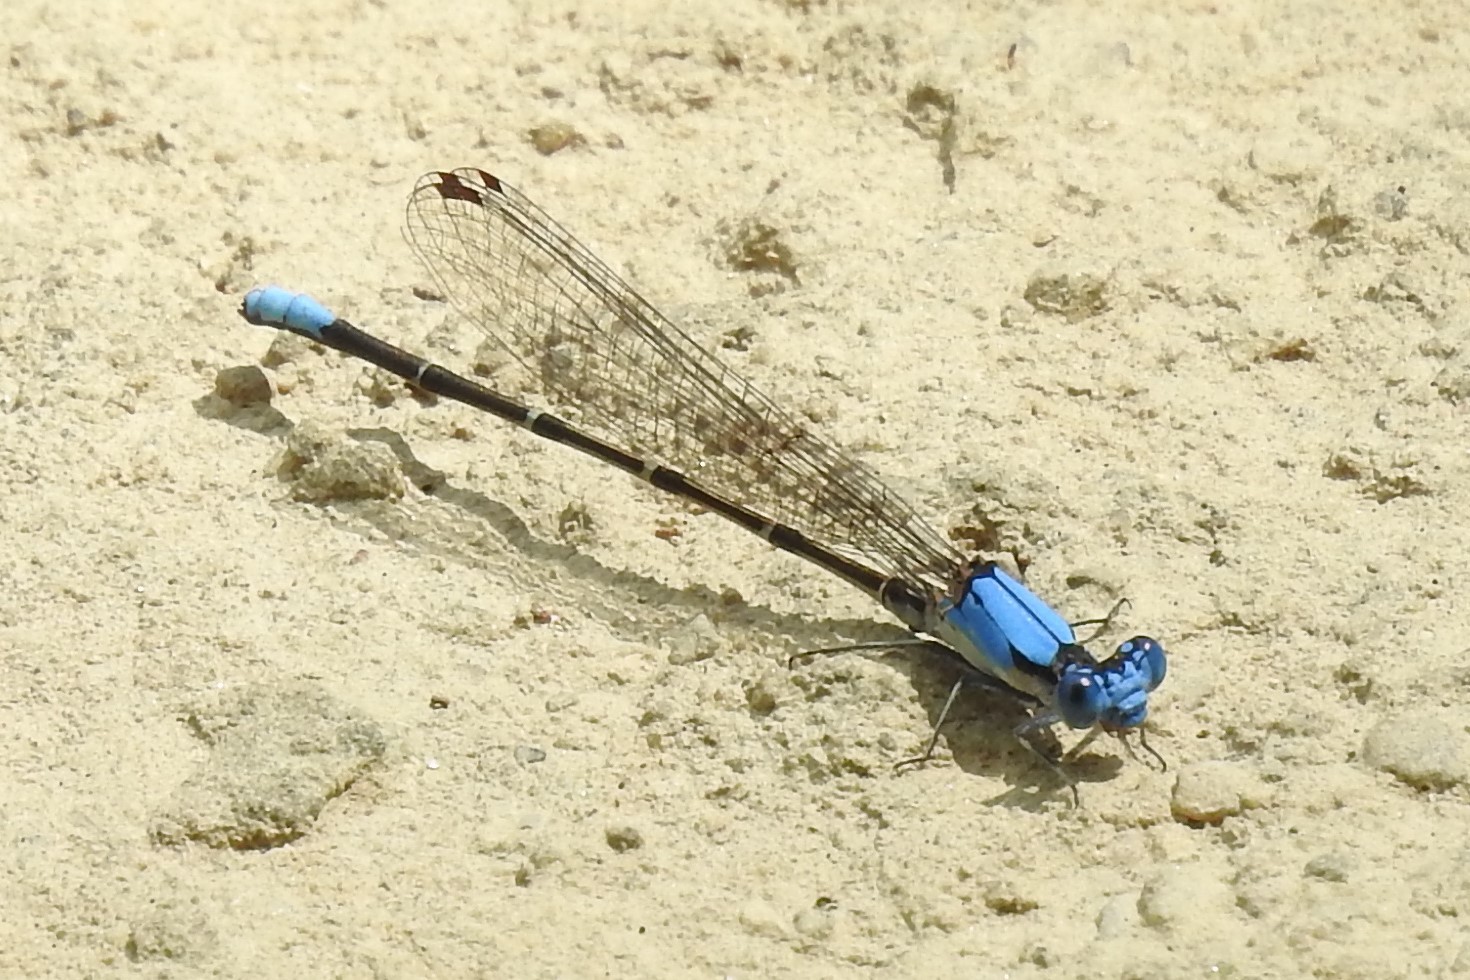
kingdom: Animalia
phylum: Arthropoda
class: Insecta
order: Odonata
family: Coenagrionidae
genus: Argia
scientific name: Argia apicalis
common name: Blue-fronted dancer
